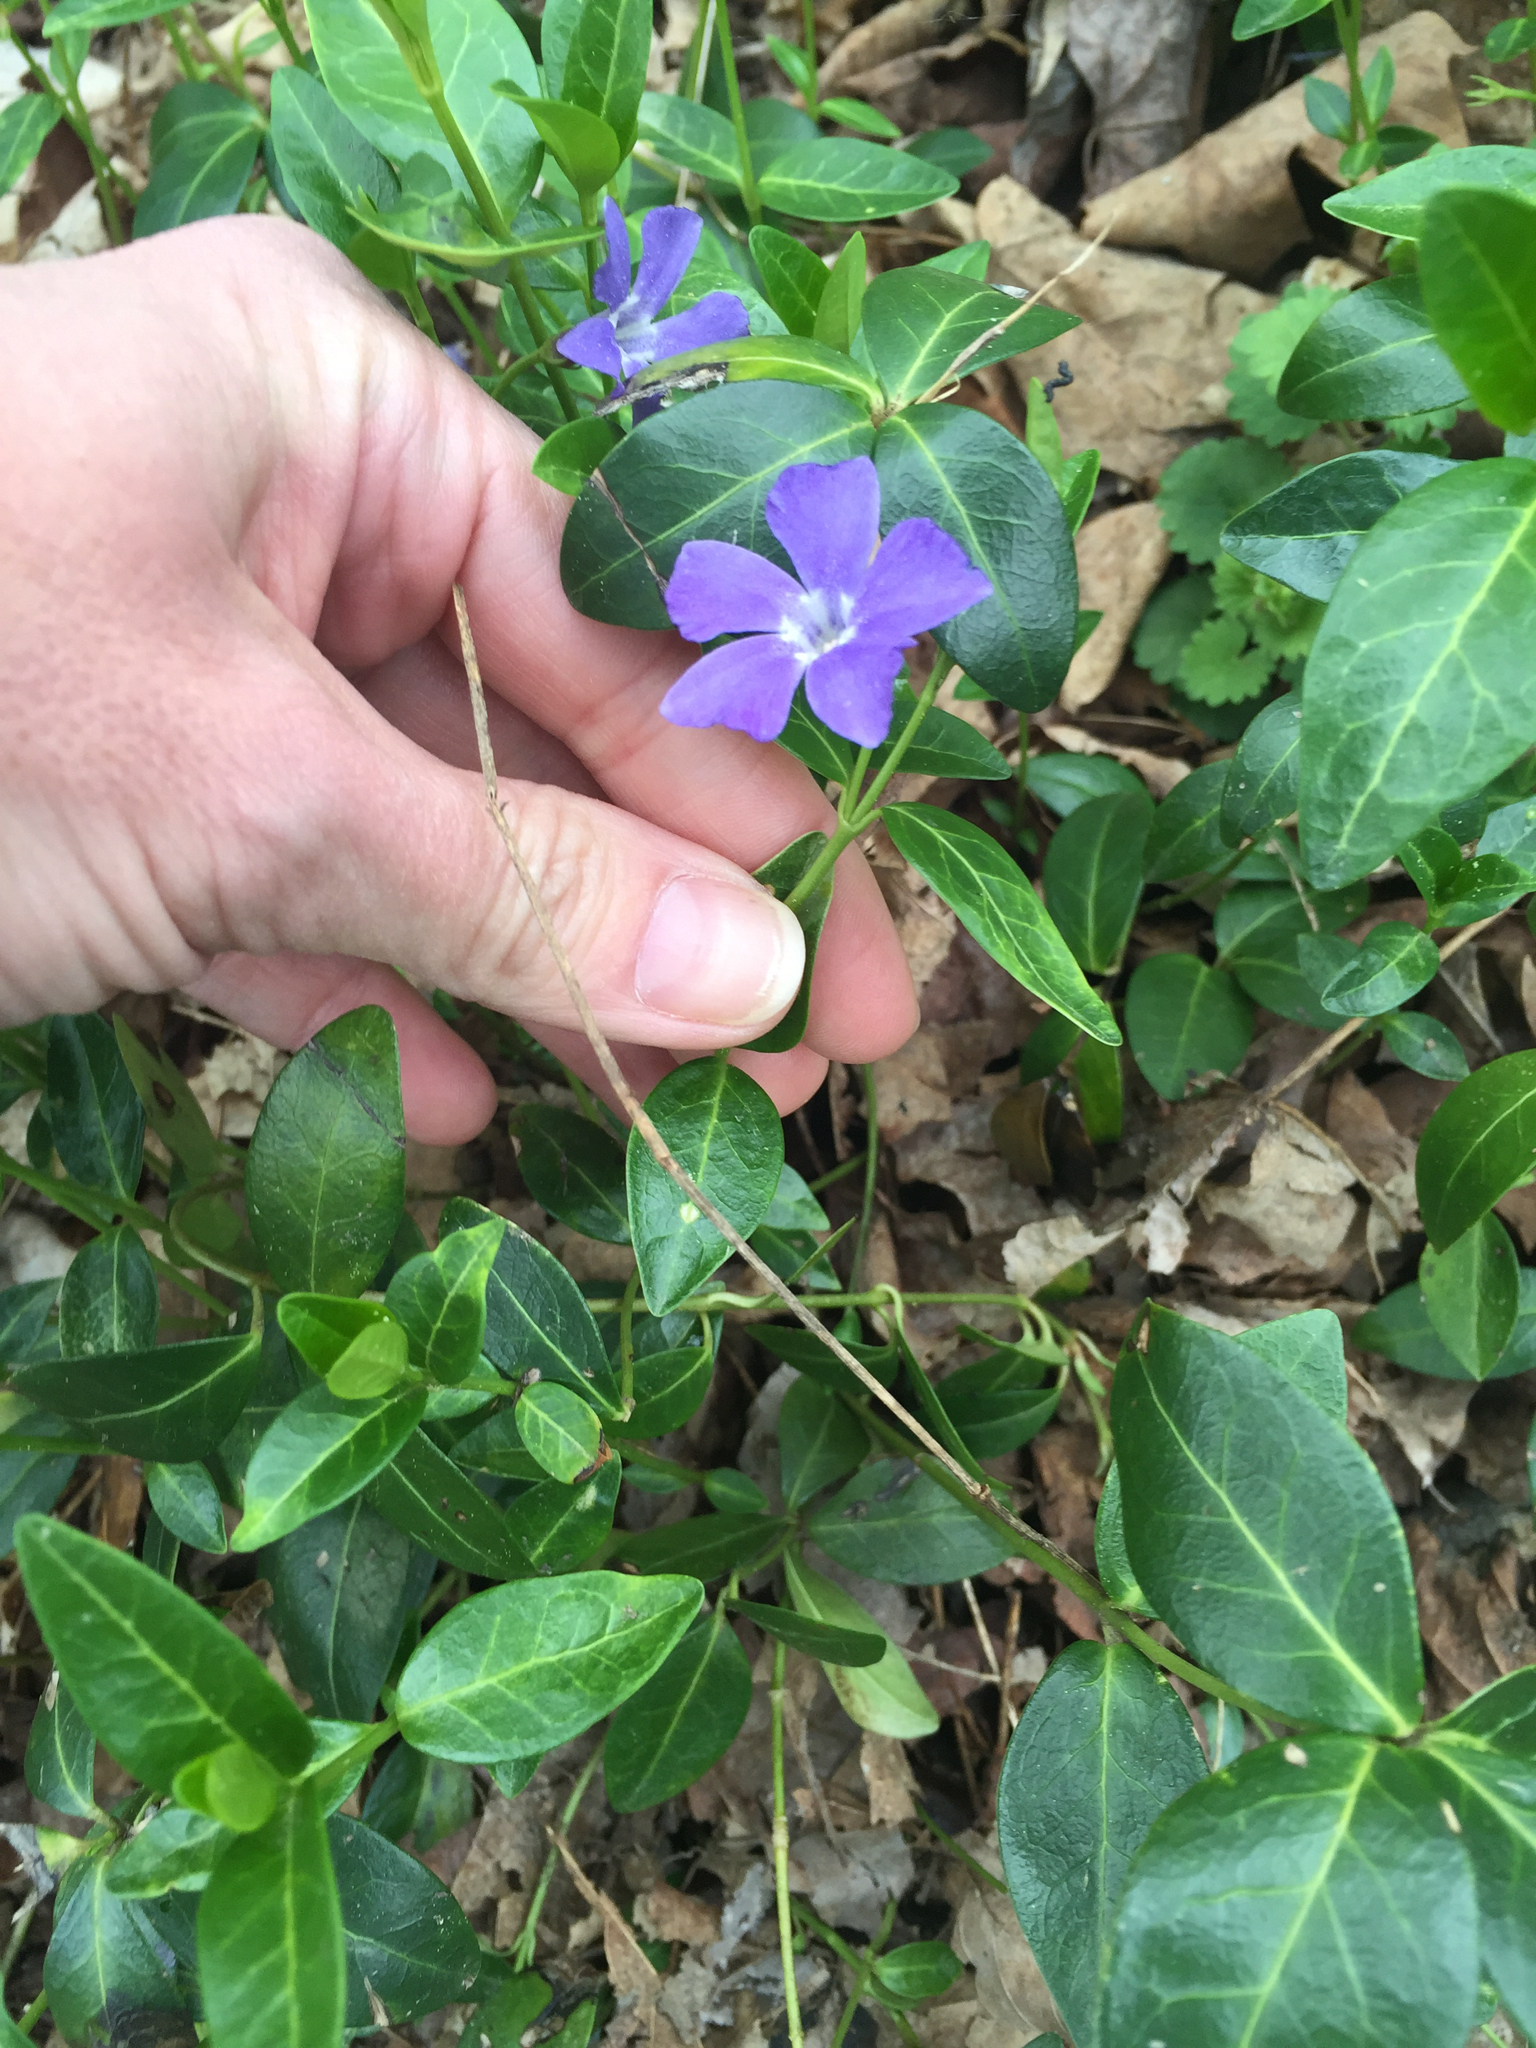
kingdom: Plantae
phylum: Tracheophyta
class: Magnoliopsida
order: Gentianales
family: Apocynaceae
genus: Vinca
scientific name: Vinca minor
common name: Lesser periwinkle
